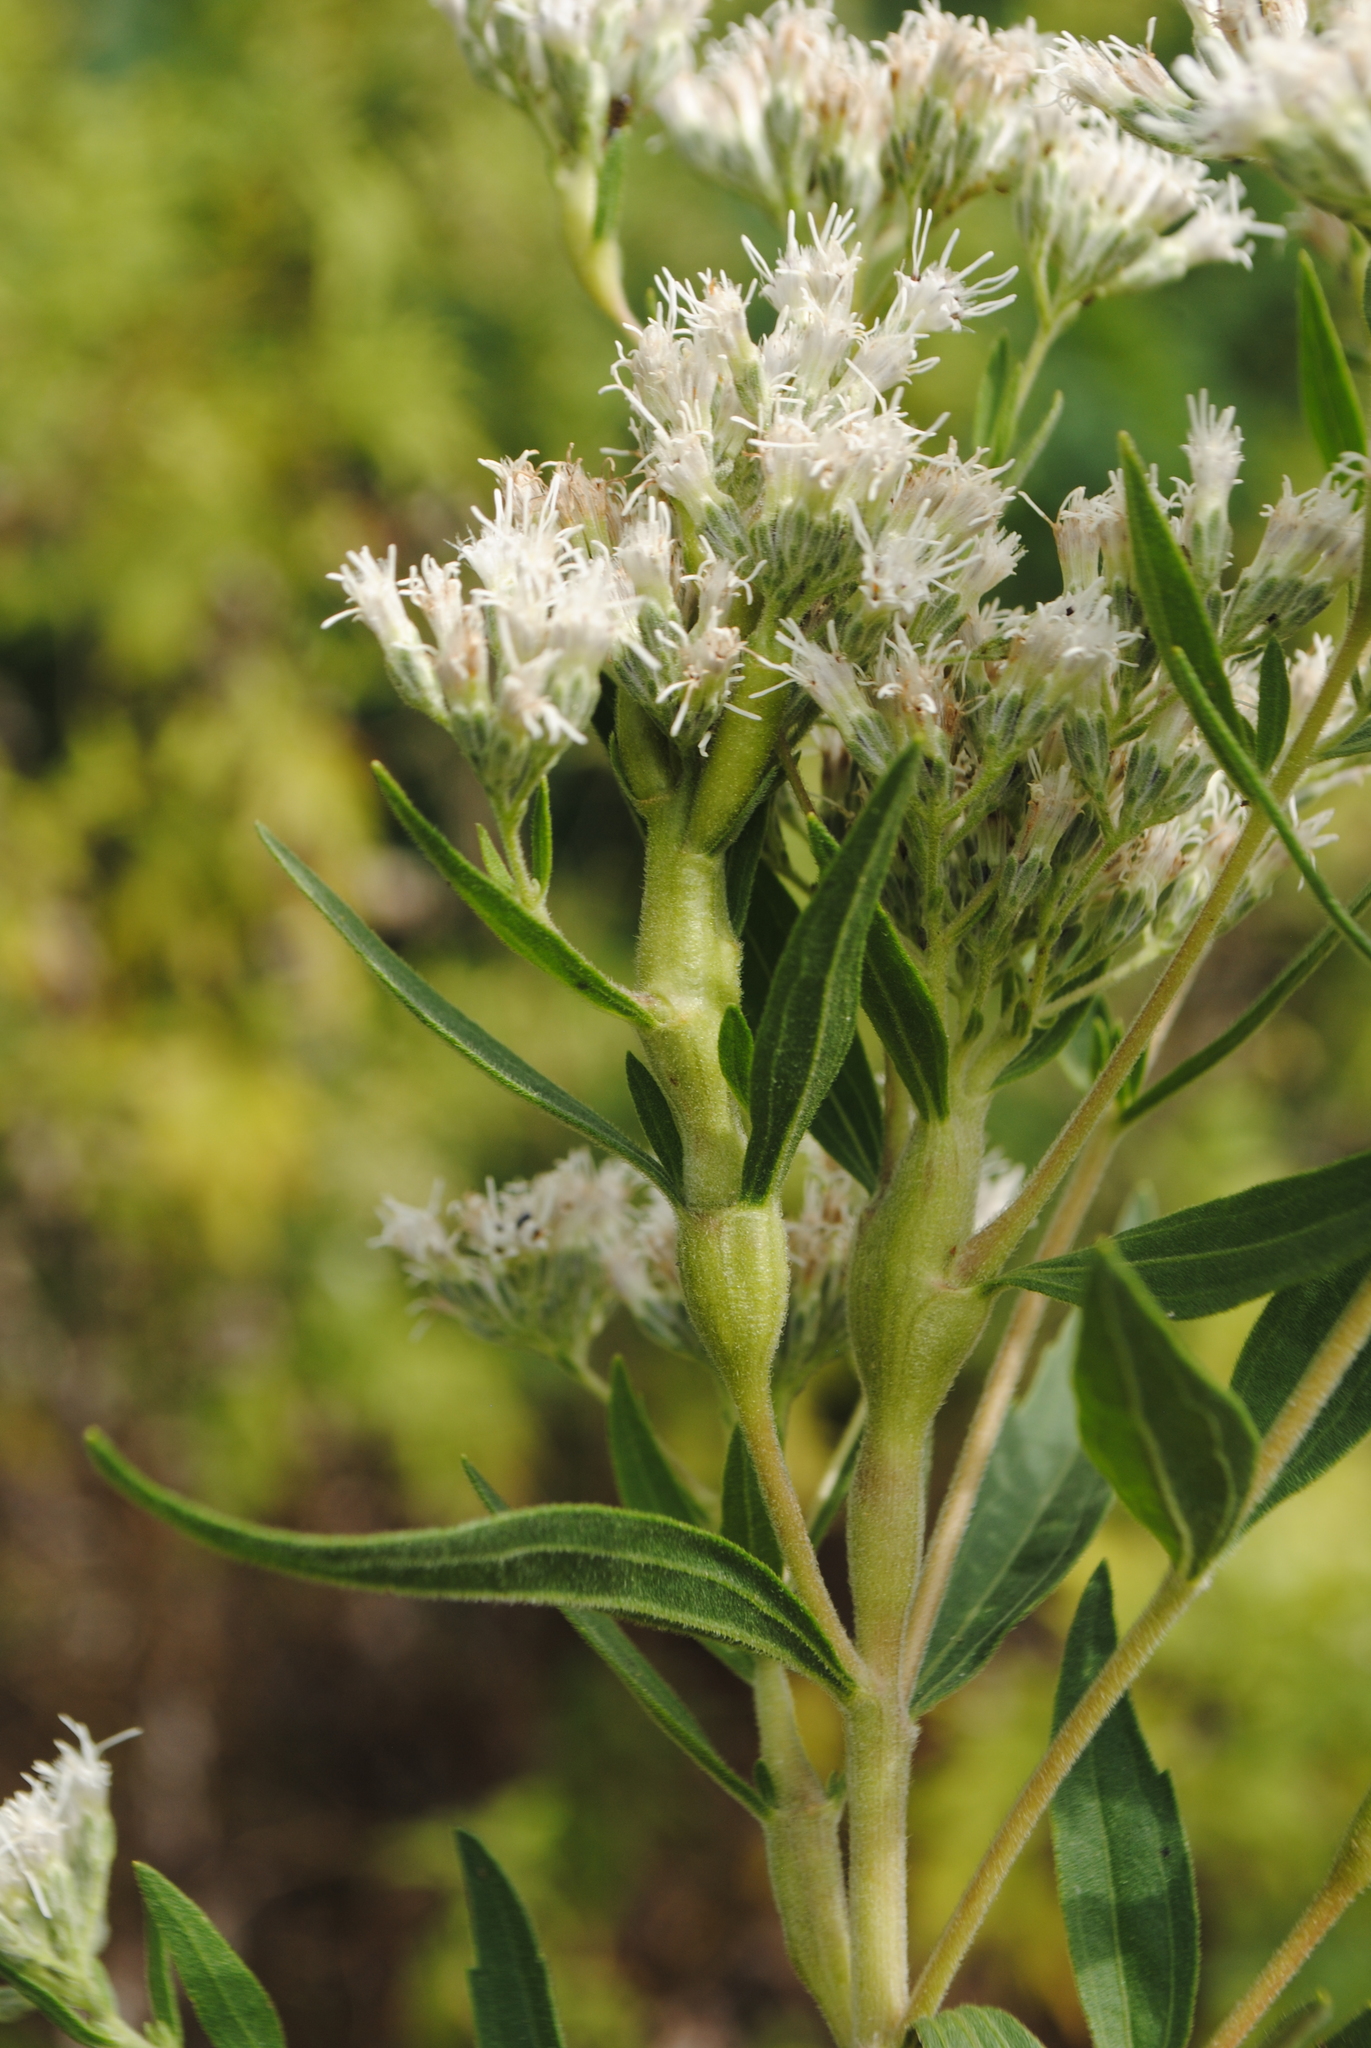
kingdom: Animalia
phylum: Arthropoda
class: Insecta
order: Diptera
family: Cecidomyiidae
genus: Neolasioptera
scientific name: Neolasioptera perfoliata
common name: Boneset stem midge
